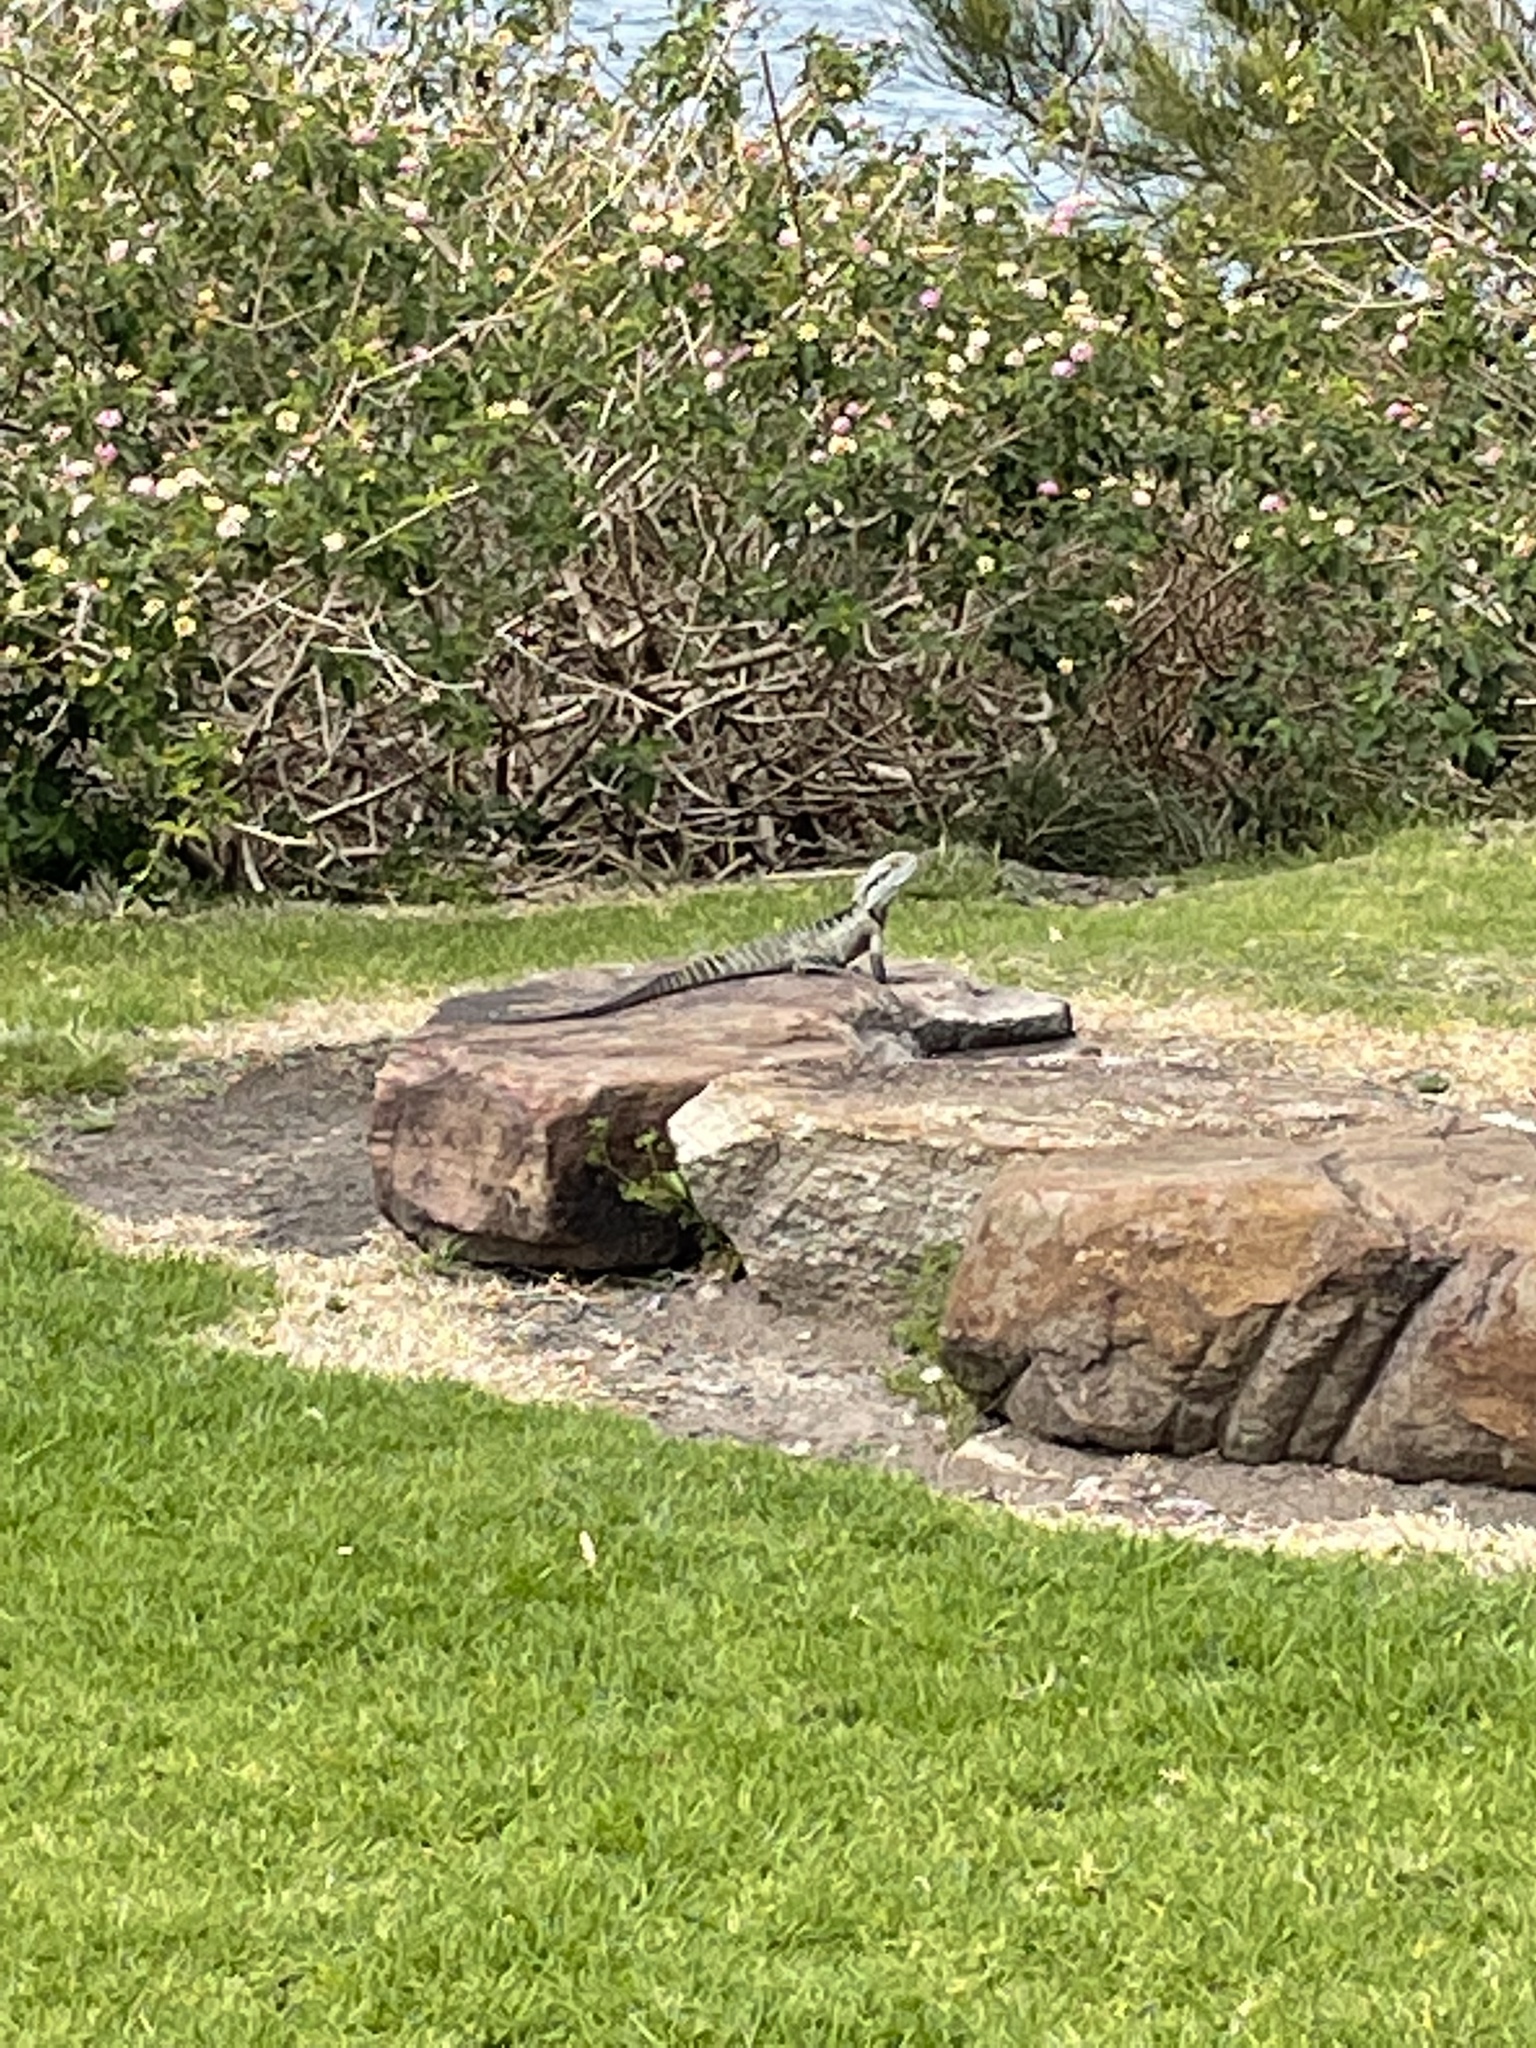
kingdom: Animalia
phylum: Chordata
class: Squamata
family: Agamidae
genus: Intellagama
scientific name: Intellagama lesueurii
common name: Eastern water dragon
